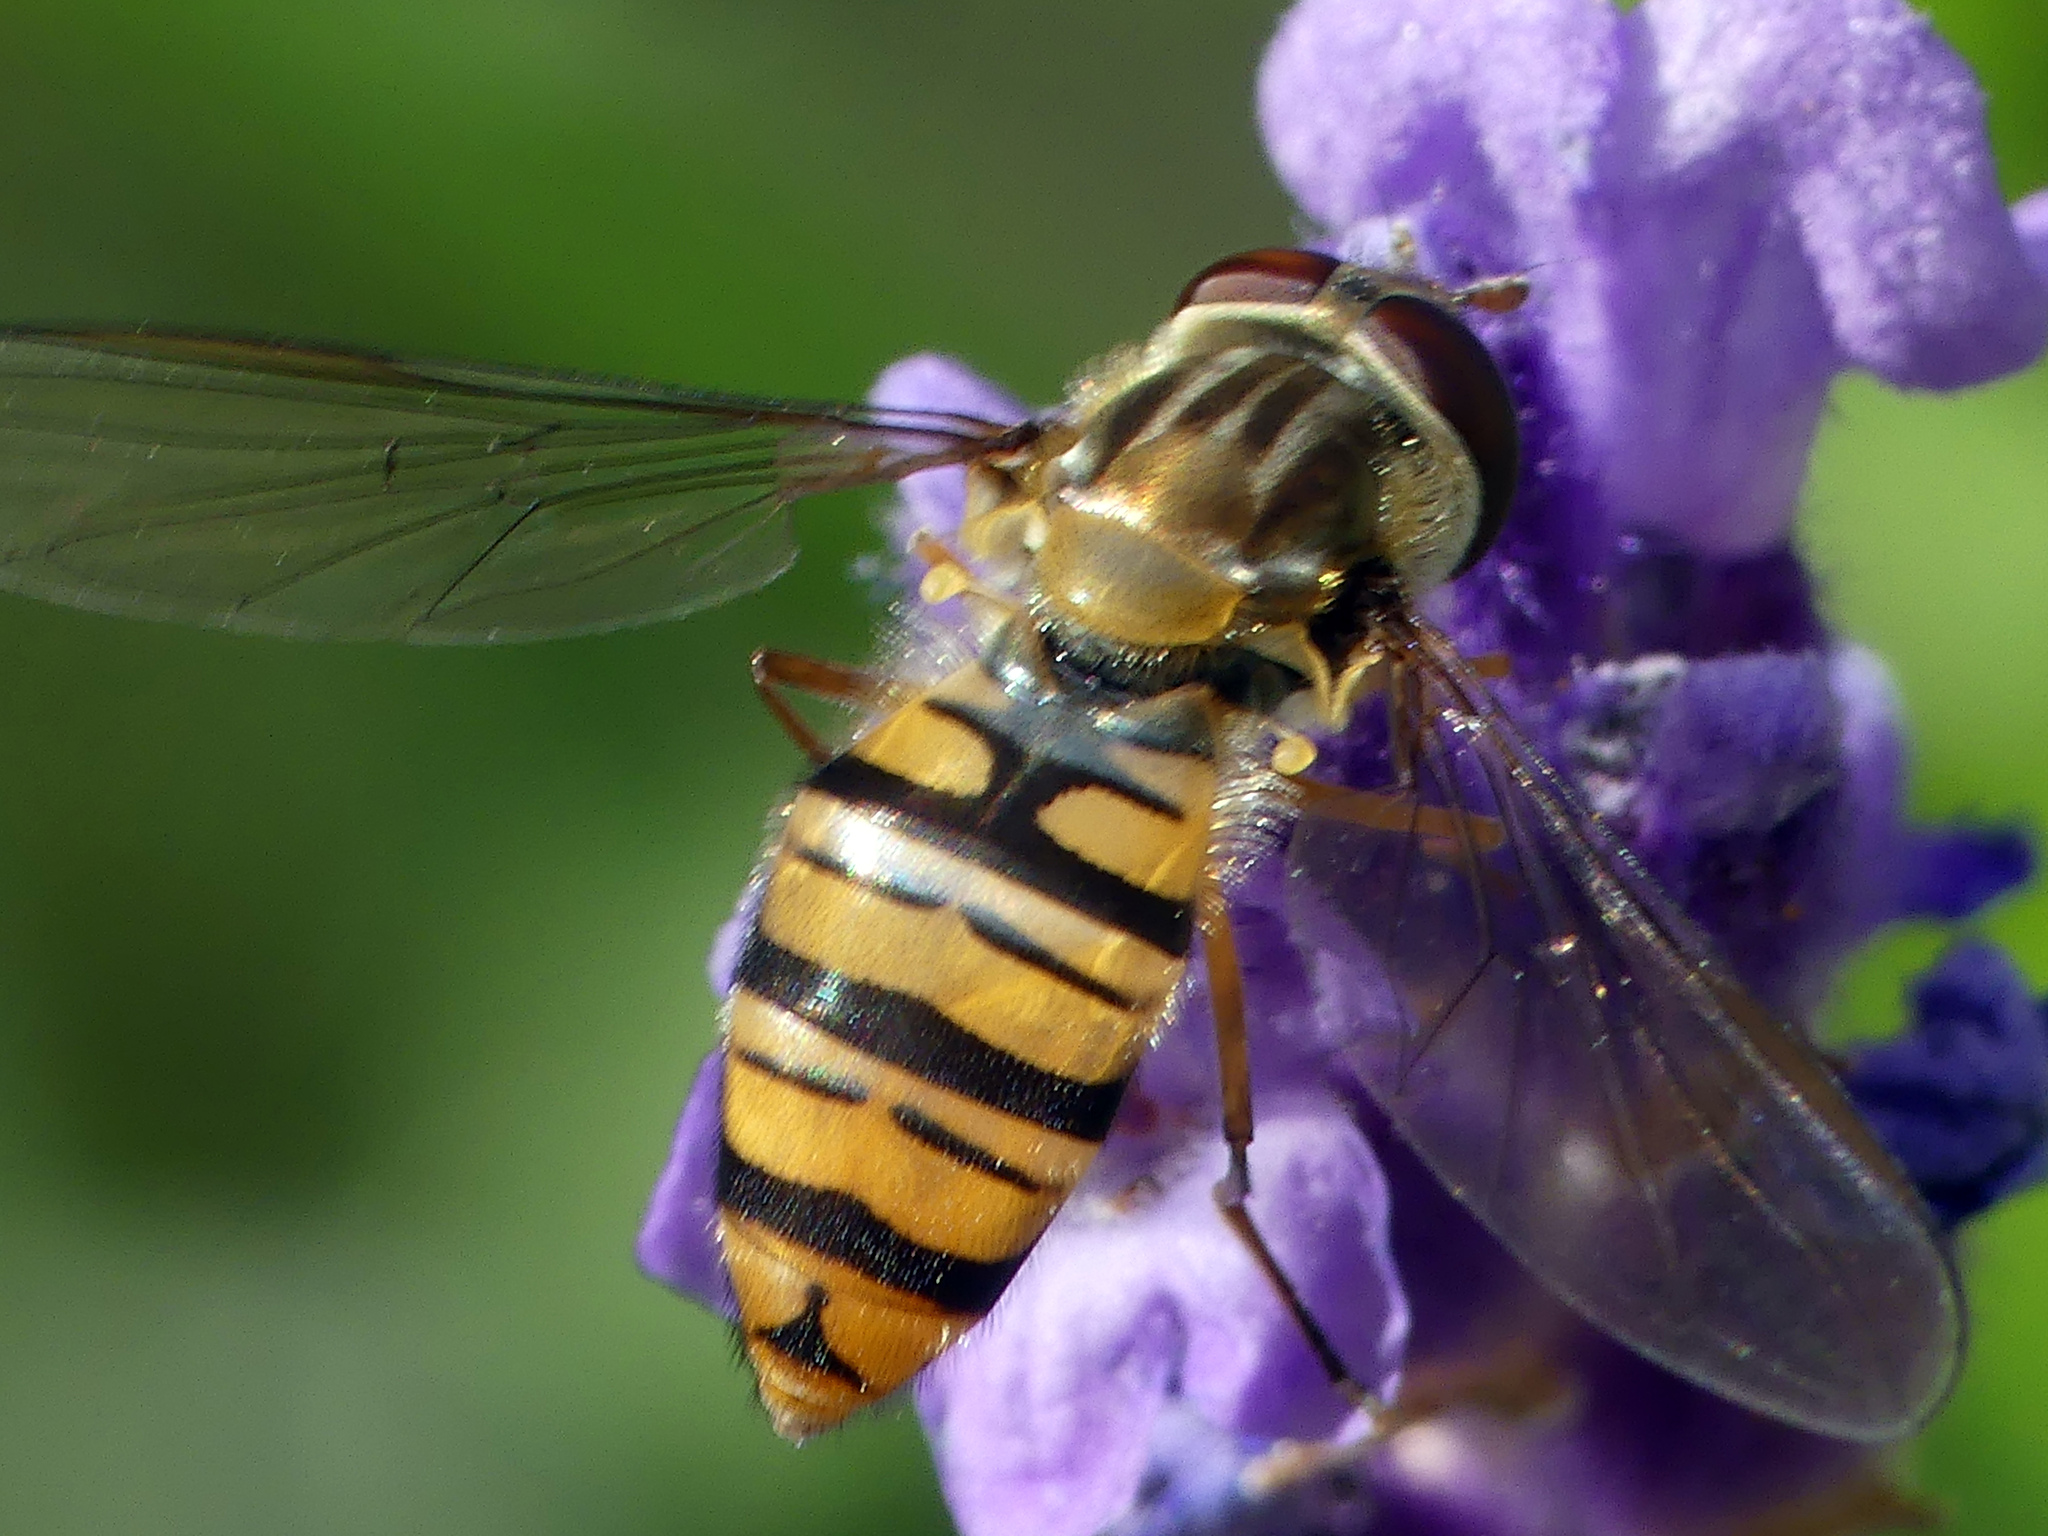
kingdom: Animalia
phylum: Arthropoda
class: Insecta
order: Diptera
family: Syrphidae
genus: Episyrphus
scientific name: Episyrphus balteatus
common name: Marmalade hoverfly
